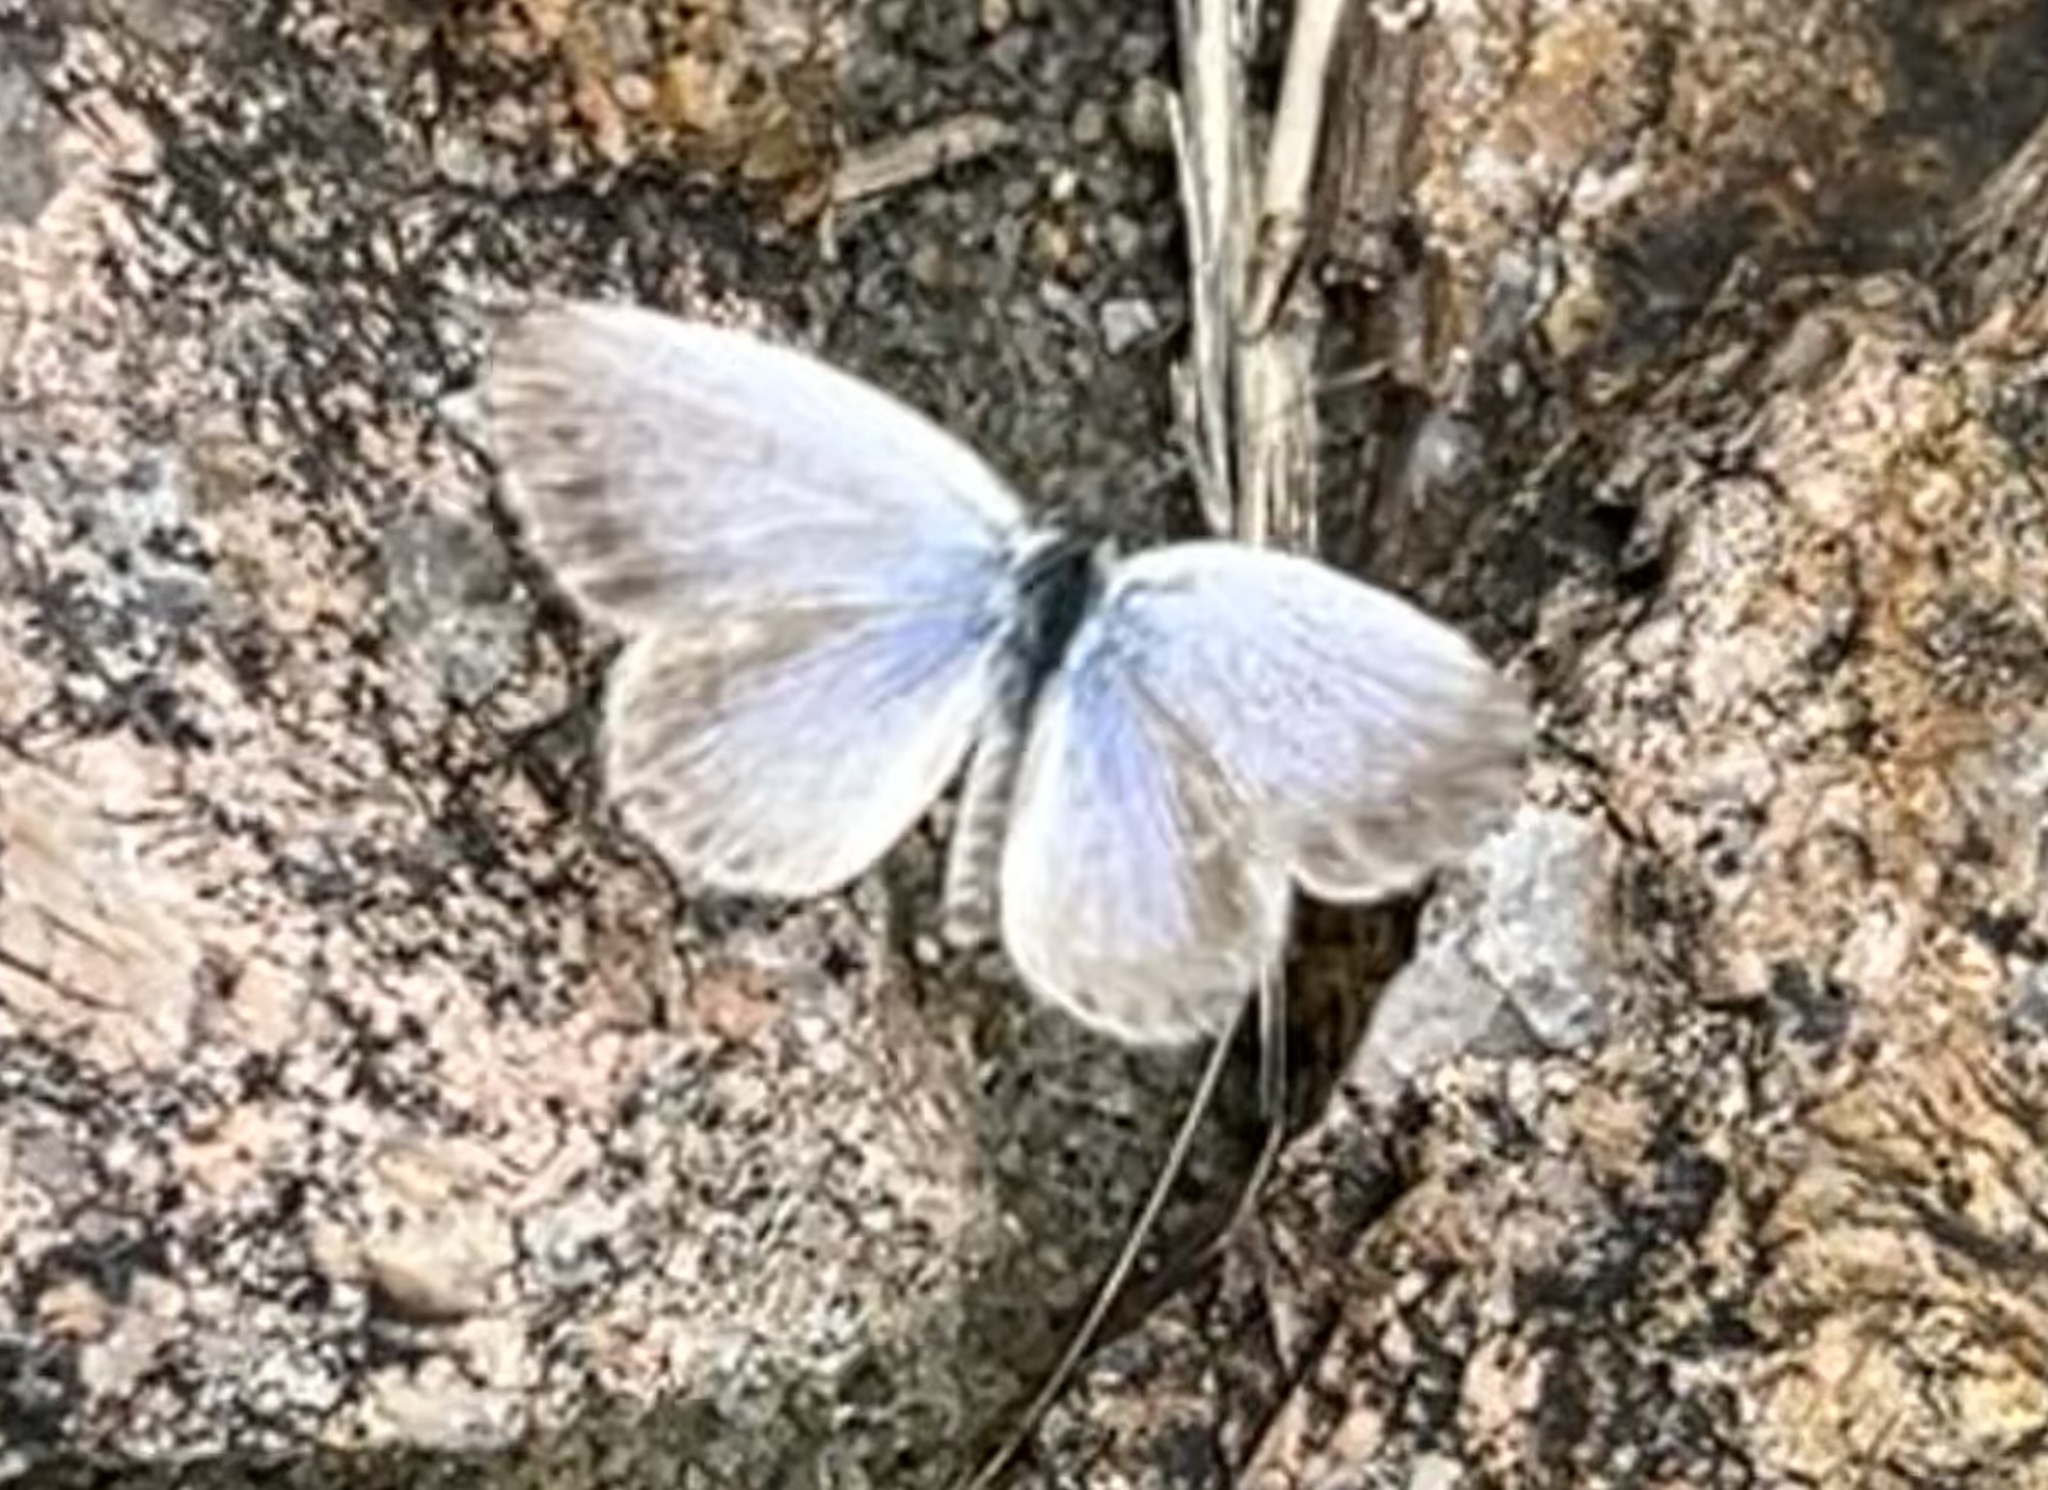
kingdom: Animalia
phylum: Arthropoda
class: Insecta
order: Lepidoptera
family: Lycaenidae
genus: Pseudozizeeria
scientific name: Pseudozizeeria maha
